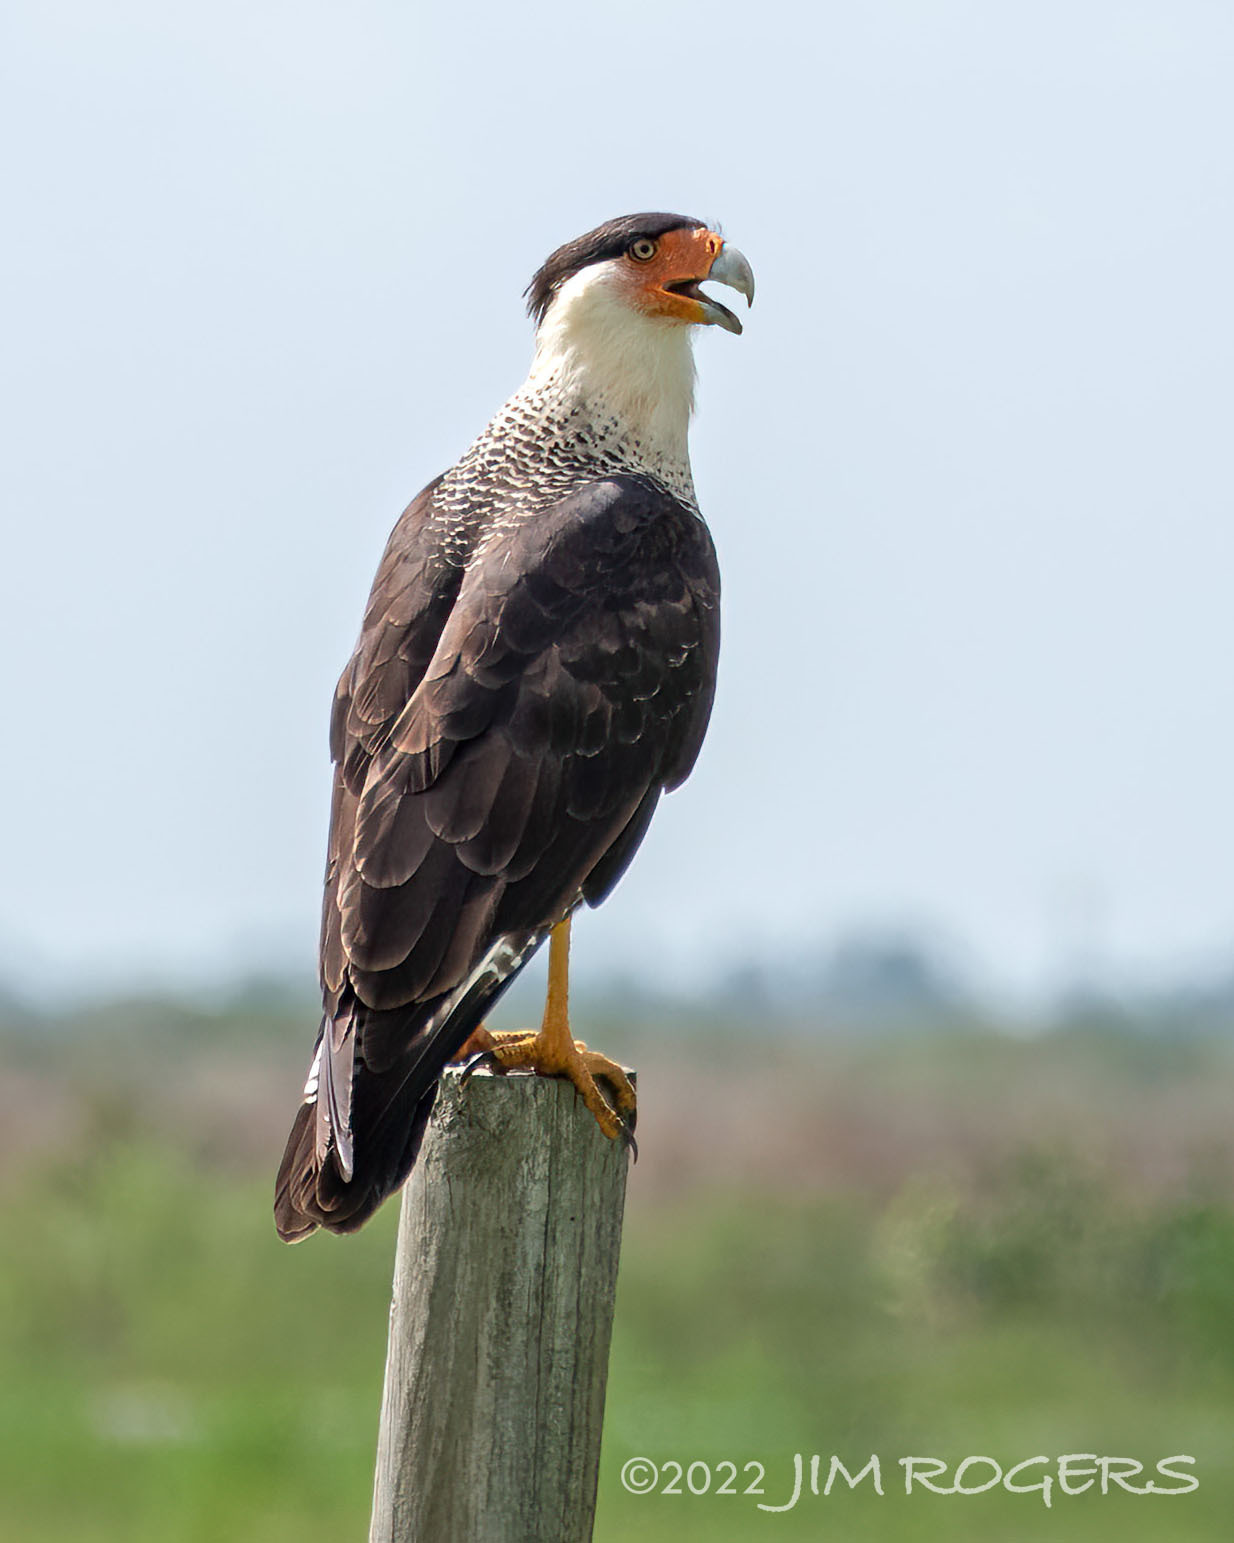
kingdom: Animalia
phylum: Chordata
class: Aves
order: Falconiformes
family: Falconidae
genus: Caracara
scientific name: Caracara plancus
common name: Southern caracara
